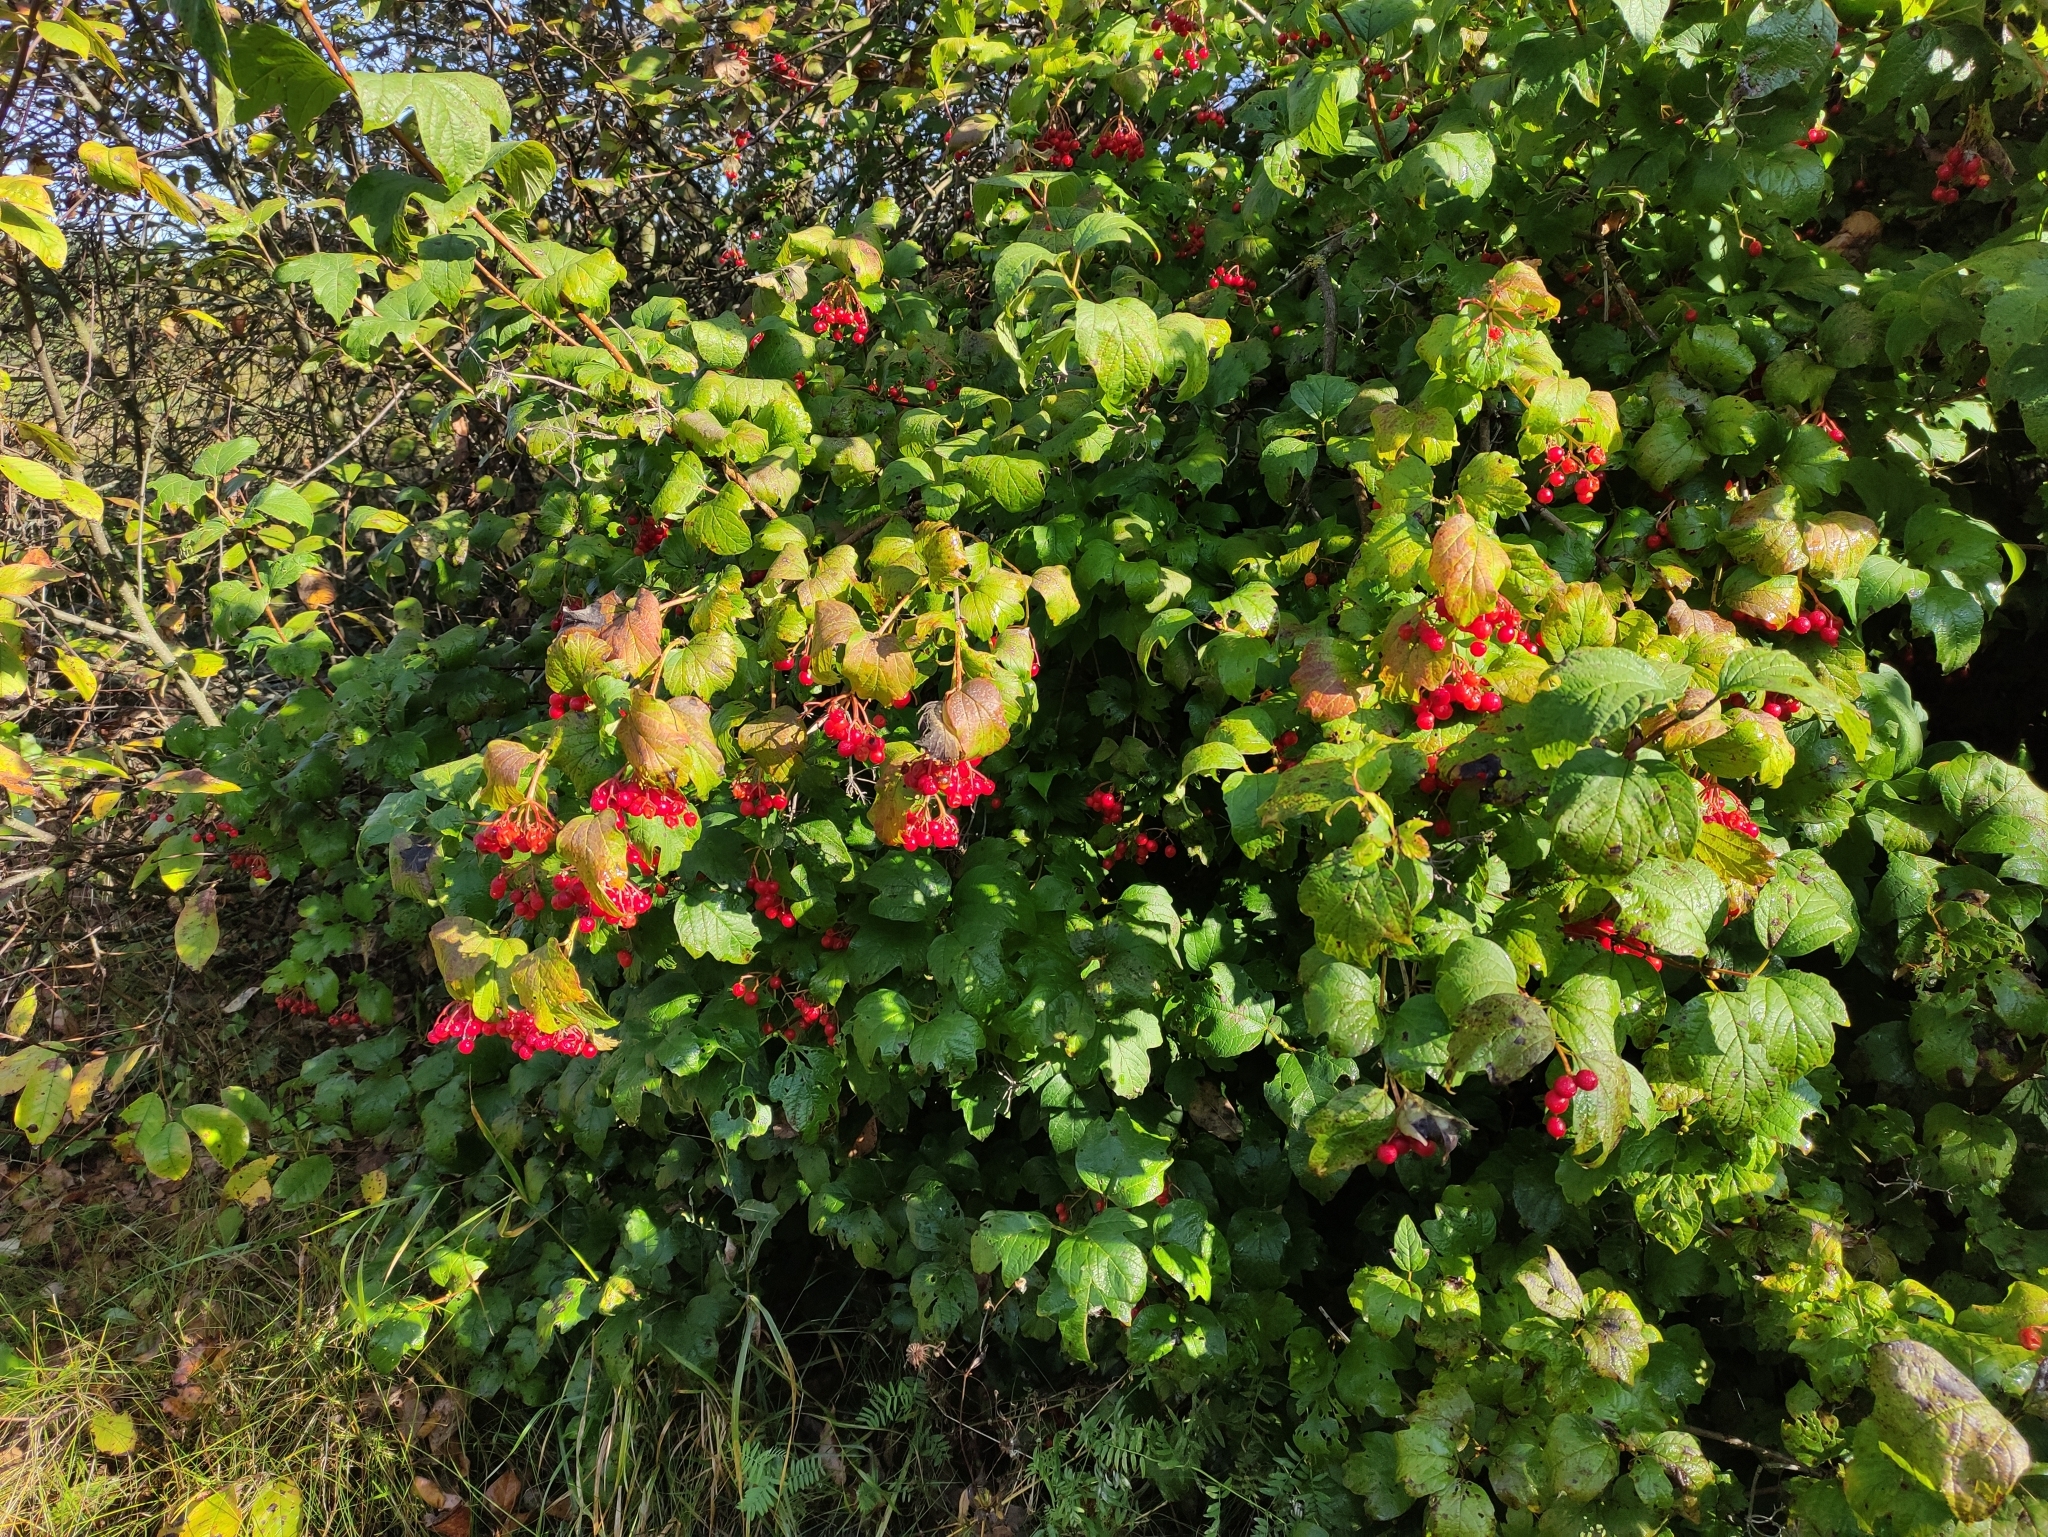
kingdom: Plantae
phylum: Tracheophyta
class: Magnoliopsida
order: Dipsacales
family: Viburnaceae
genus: Viburnum
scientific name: Viburnum opulus
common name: Guelder-rose
